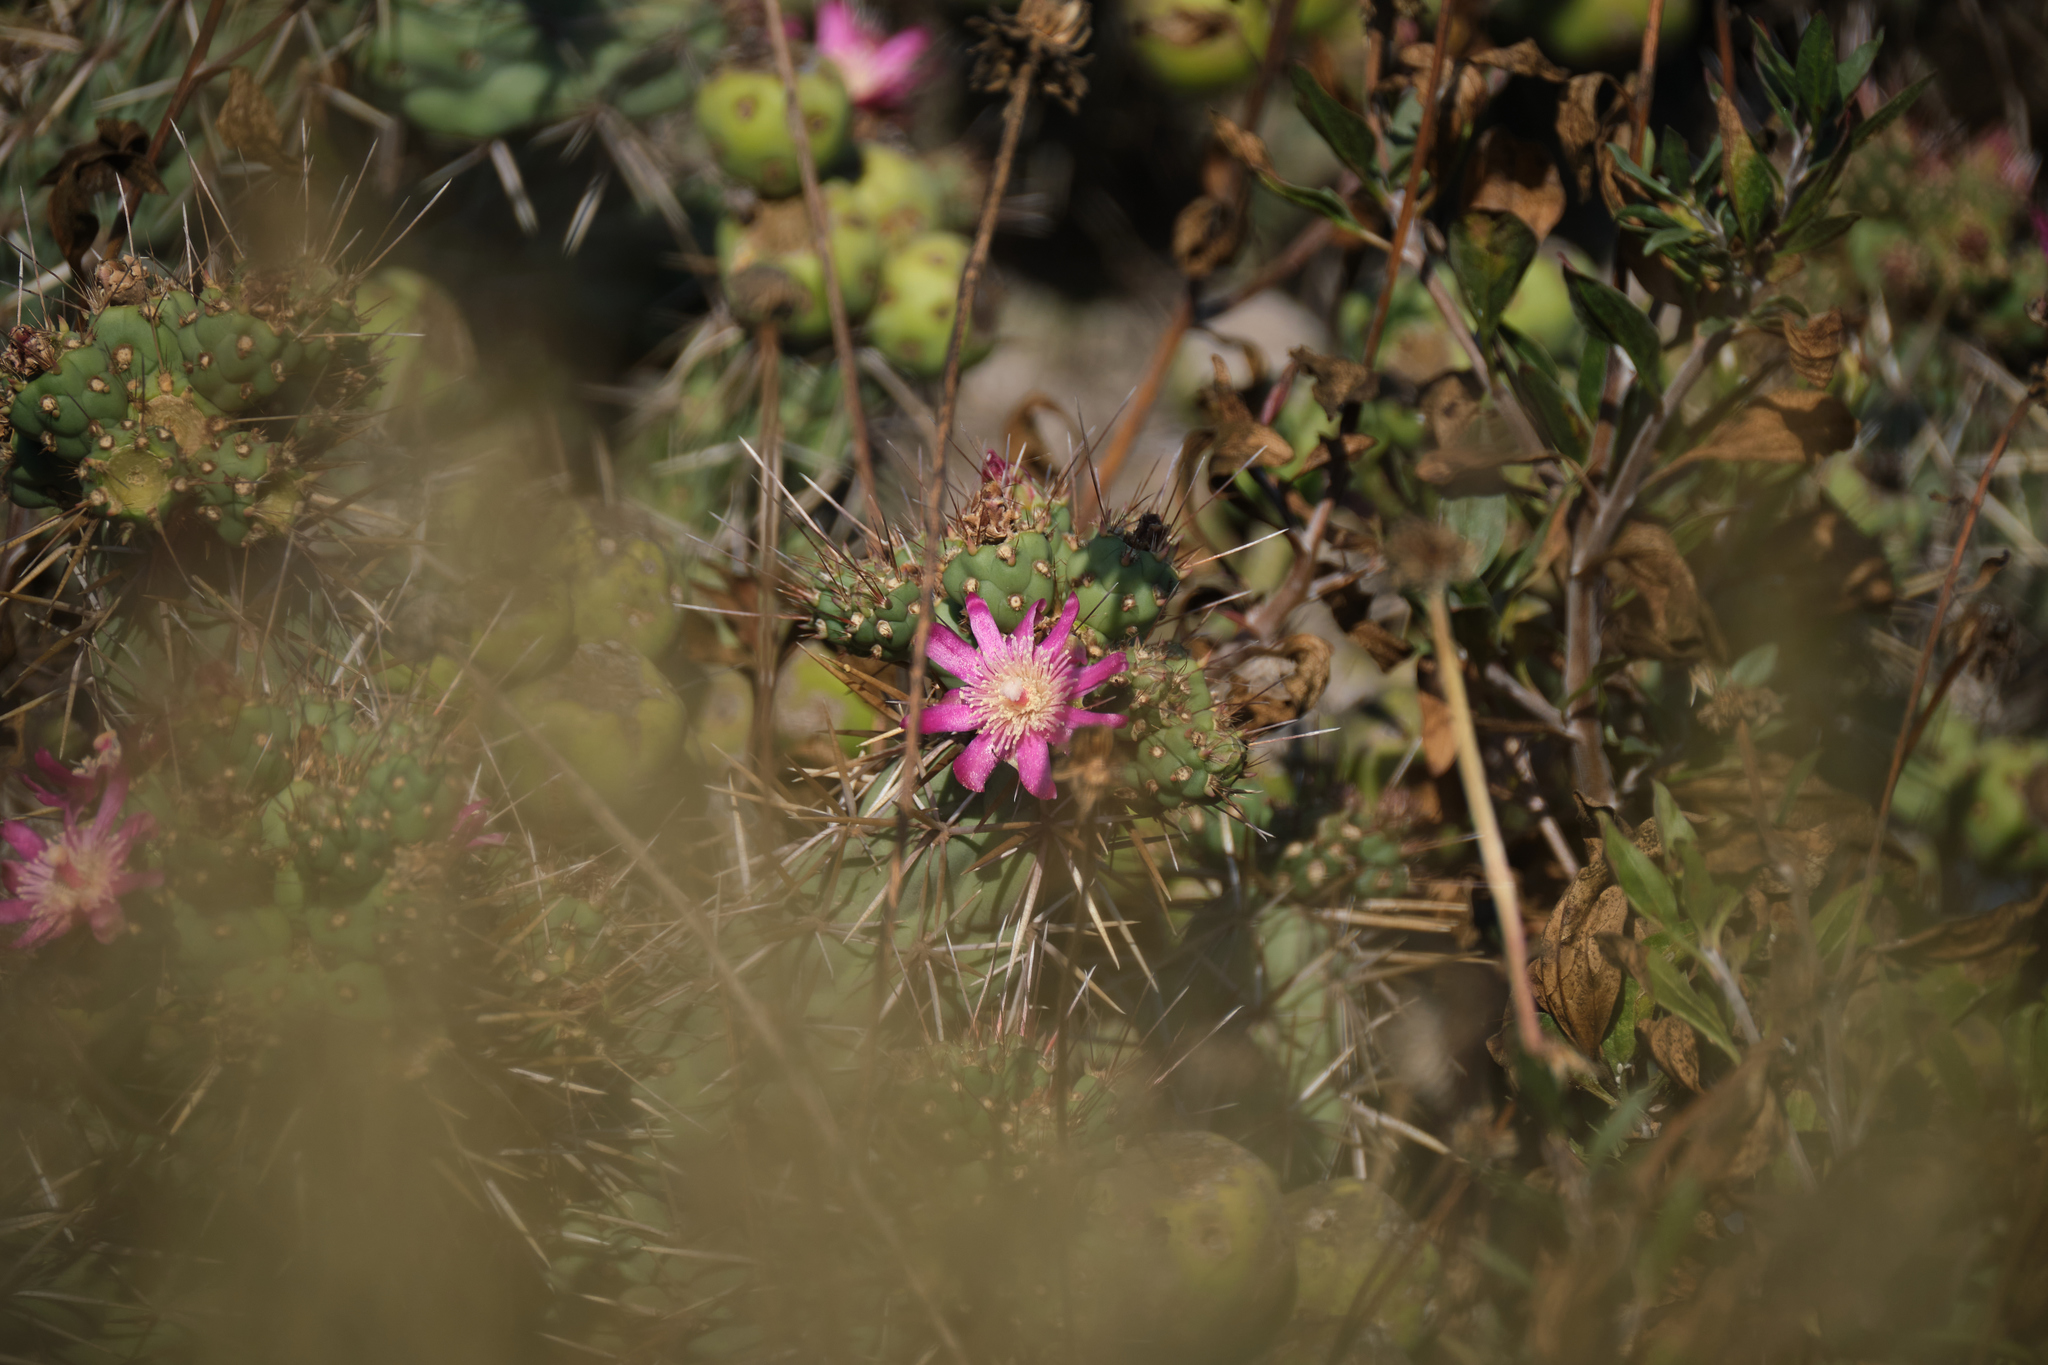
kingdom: Plantae
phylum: Tracheophyta
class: Magnoliopsida
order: Caryophyllales
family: Cactaceae
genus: Cylindropuntia
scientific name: Cylindropuntia prolifera
